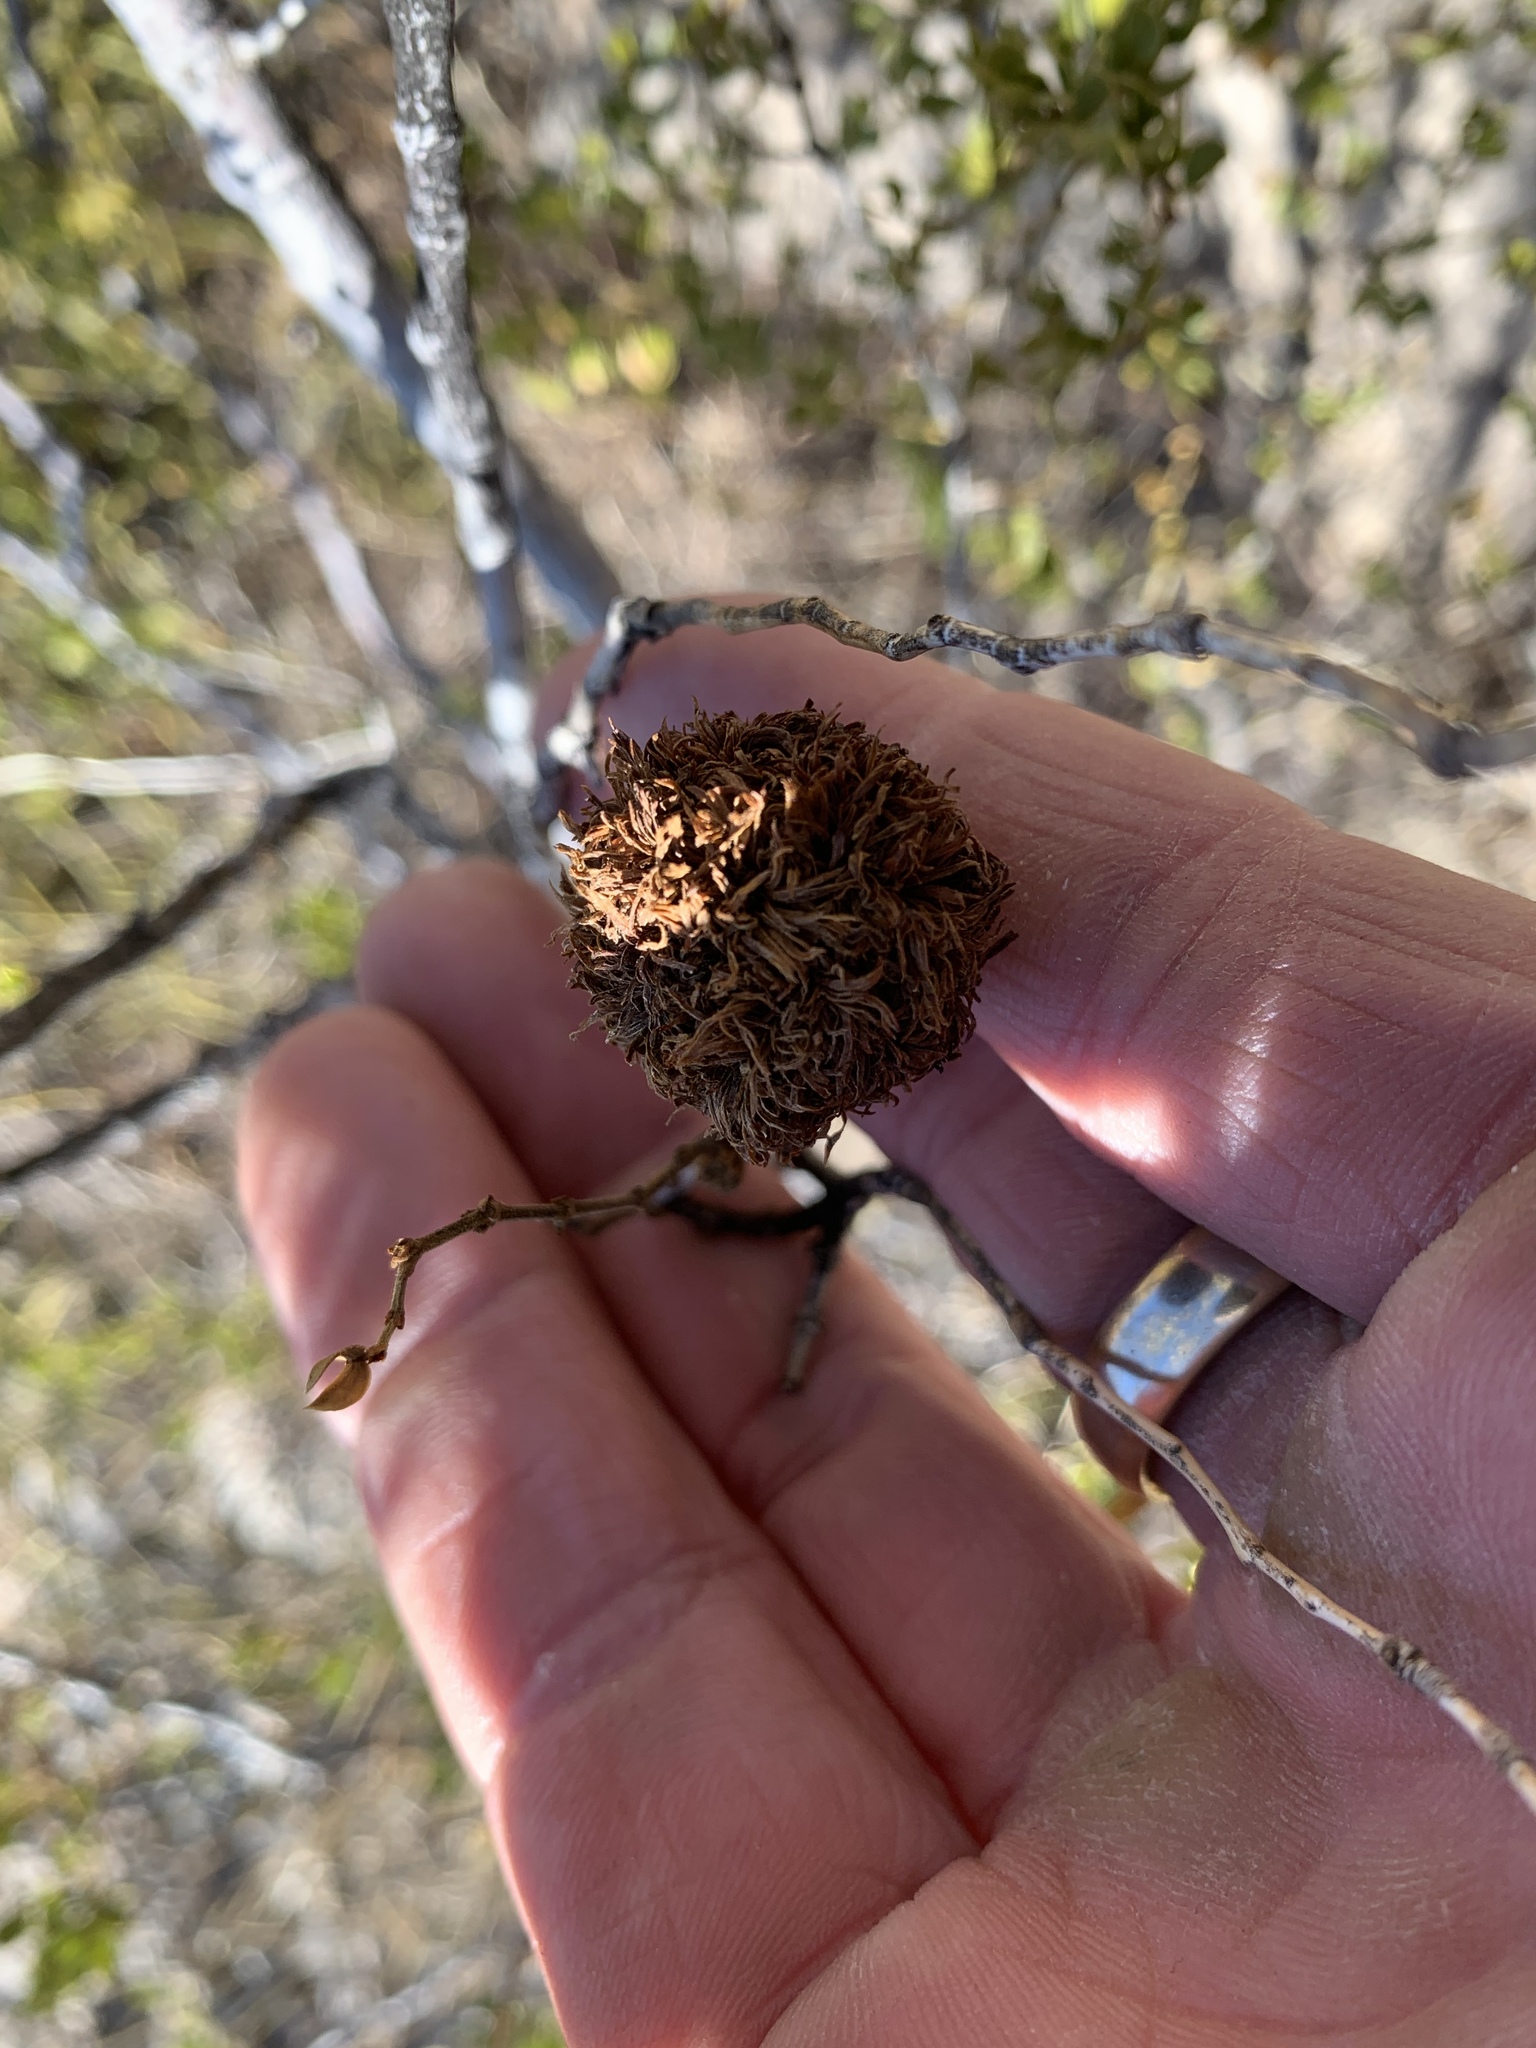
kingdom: Animalia
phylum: Arthropoda
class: Insecta
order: Diptera
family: Cecidomyiidae
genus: Asphondylia
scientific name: Asphondylia auripila
